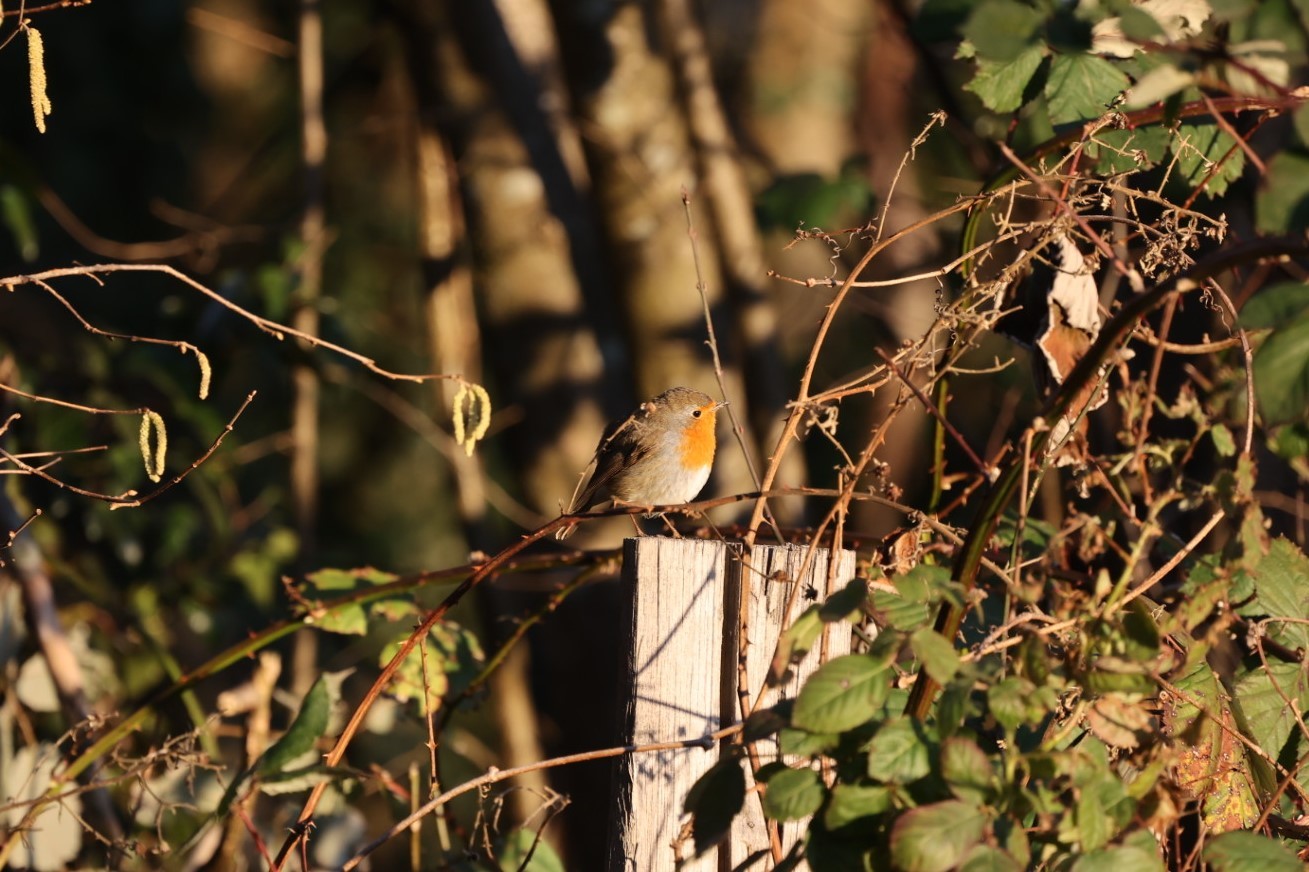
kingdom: Animalia
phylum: Chordata
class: Aves
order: Passeriformes
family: Muscicapidae
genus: Erithacus
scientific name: Erithacus rubecula
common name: European robin
